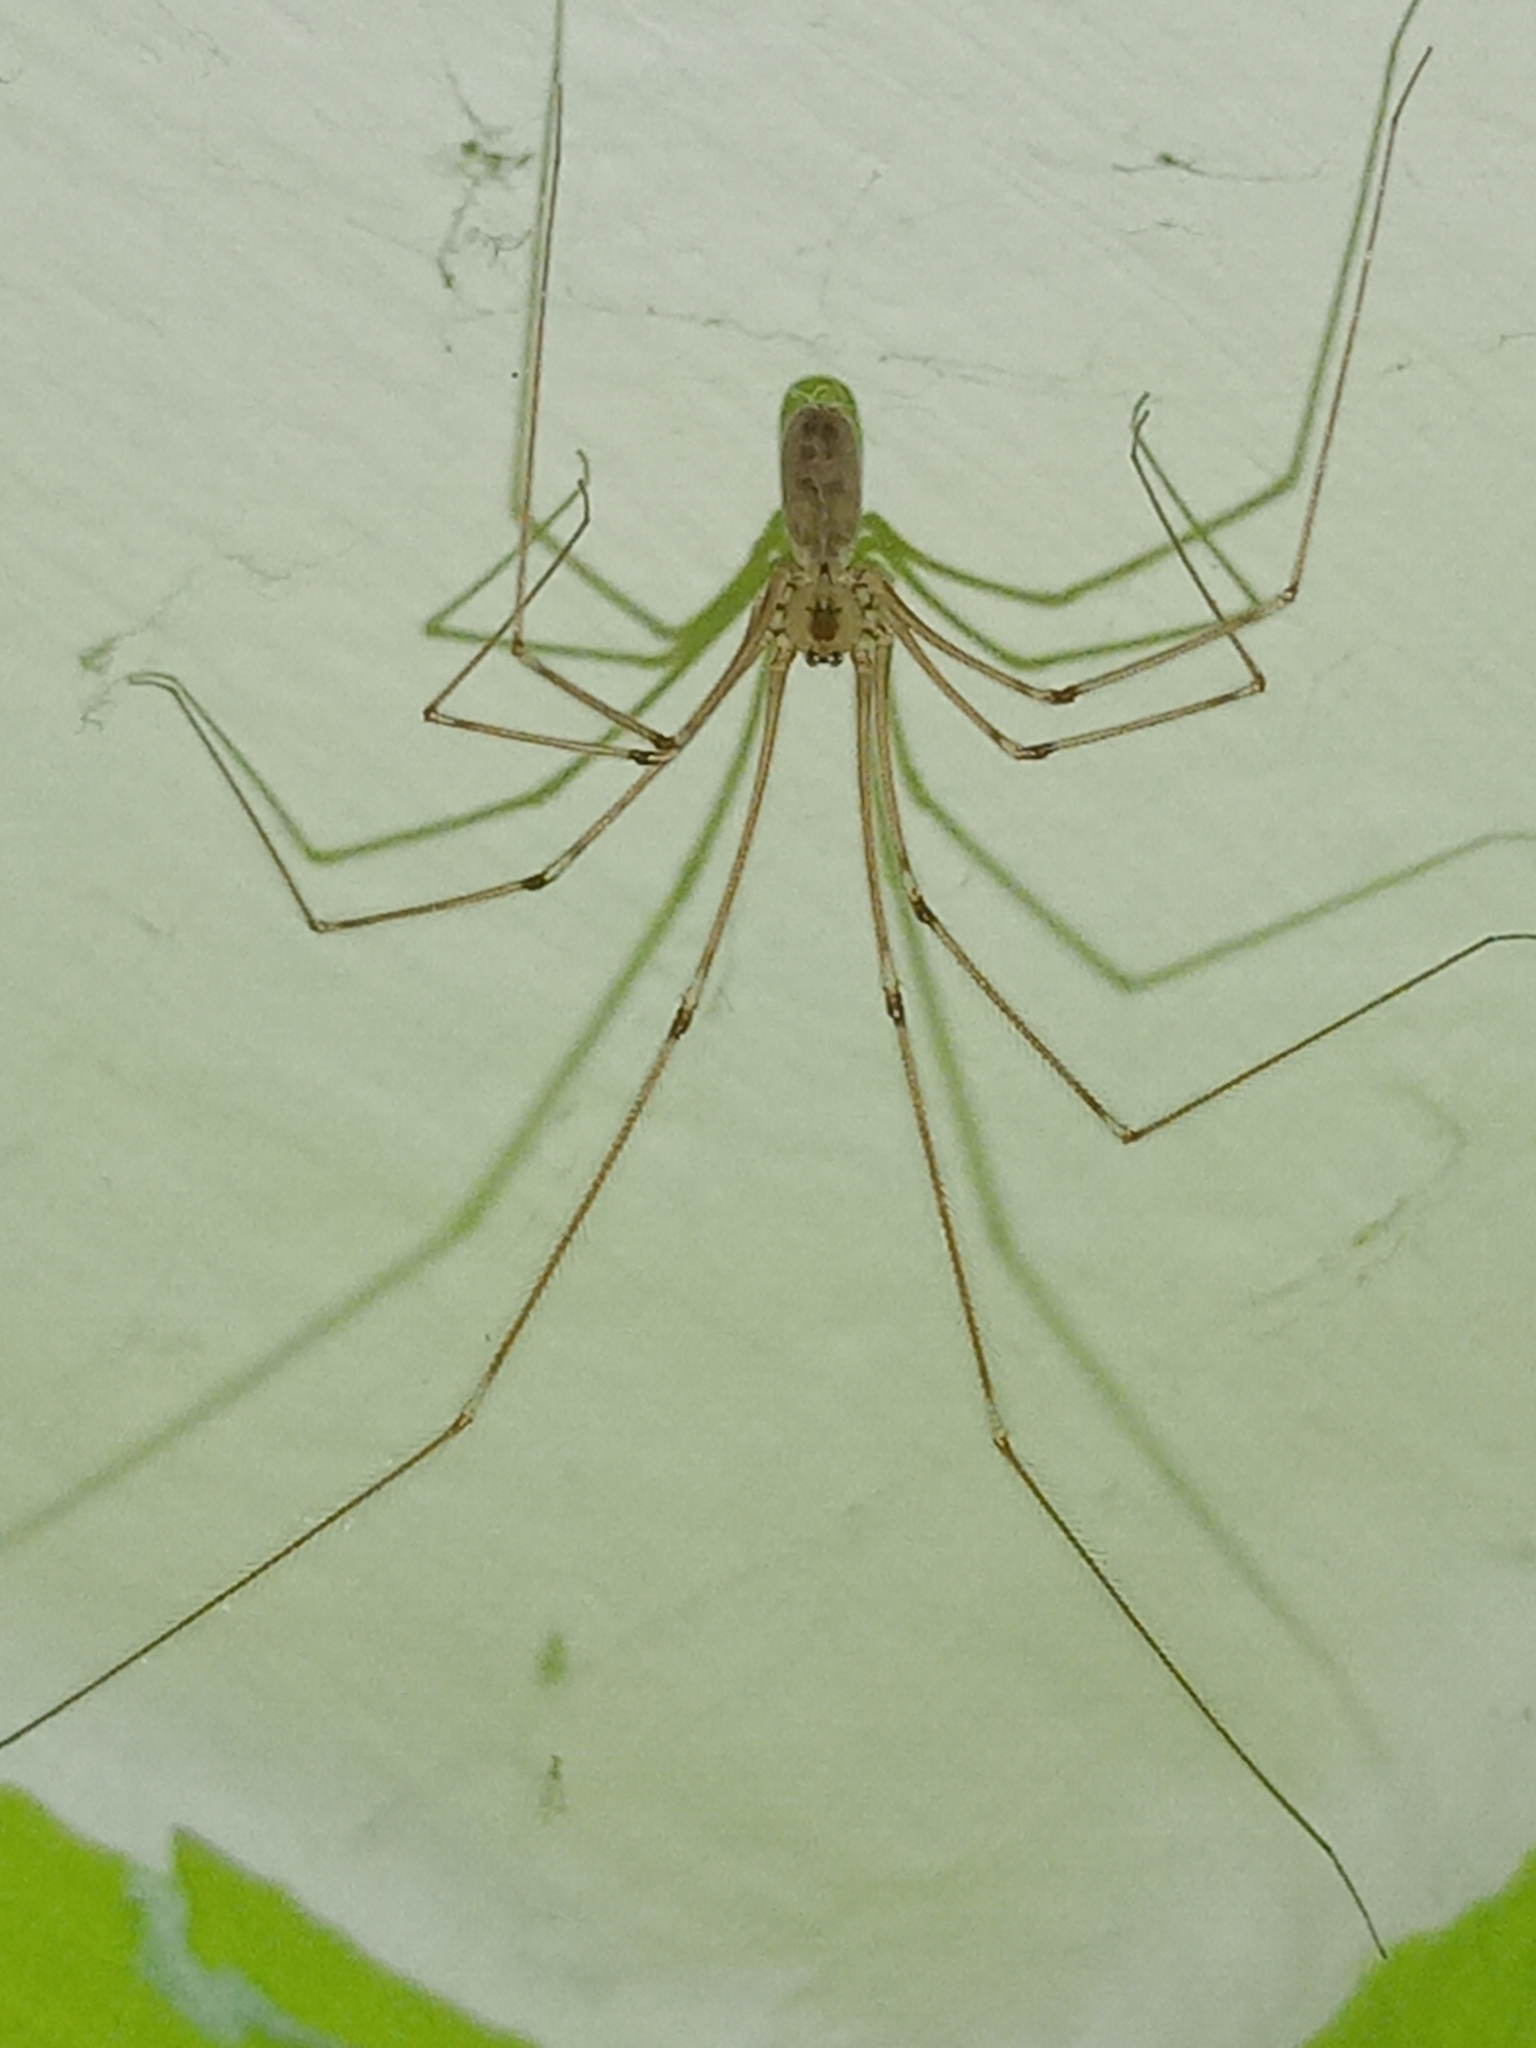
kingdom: Animalia
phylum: Arthropoda
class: Arachnida
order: Araneae
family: Pholcidae
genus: Pholcus
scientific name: Pholcus phalangioides
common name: Longbodied cellar spider
